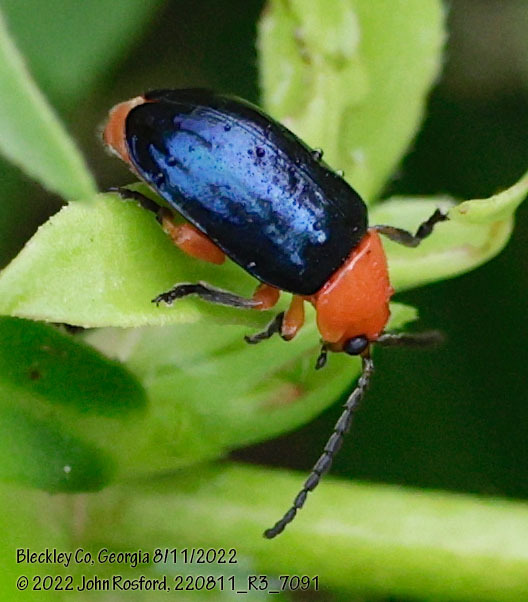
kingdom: Animalia
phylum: Arthropoda
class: Insecta
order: Coleoptera
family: Chrysomelidae
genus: Asphaera
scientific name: Asphaera lustrans
